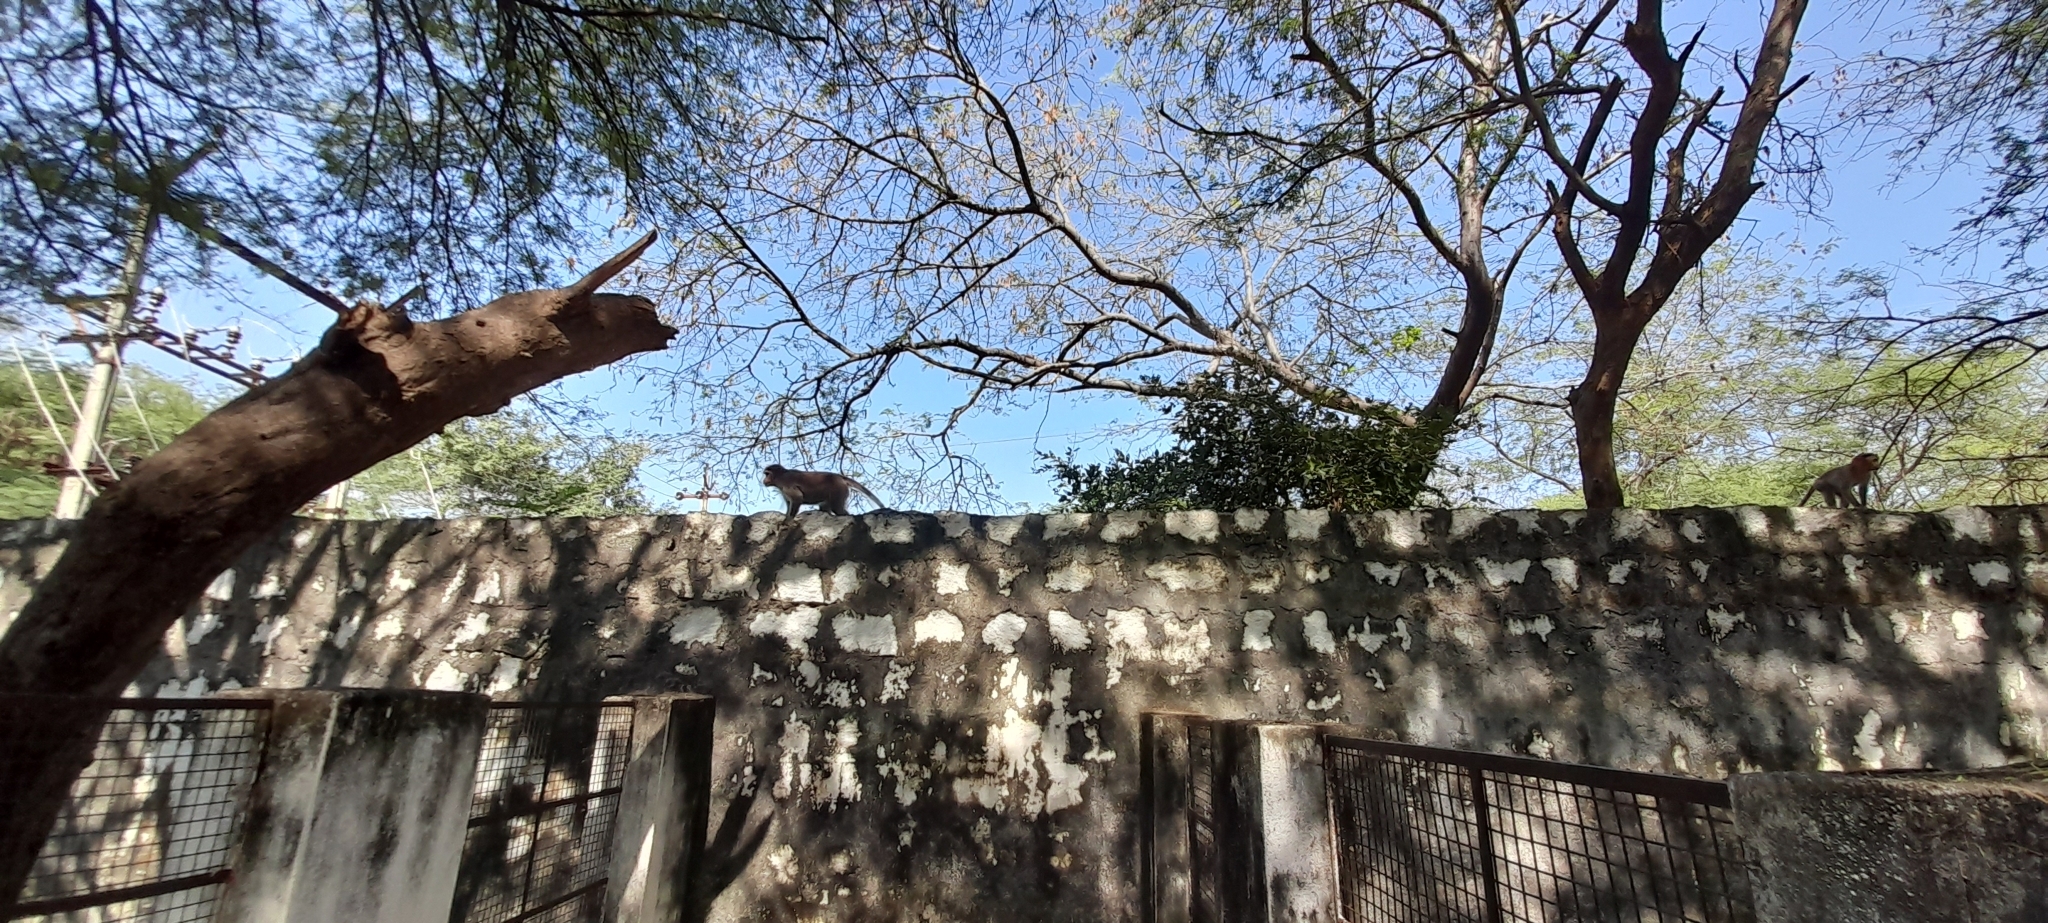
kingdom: Animalia
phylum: Chordata
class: Mammalia
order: Primates
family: Cercopithecidae
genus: Macaca
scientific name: Macaca radiata
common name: Bonnet macaque
